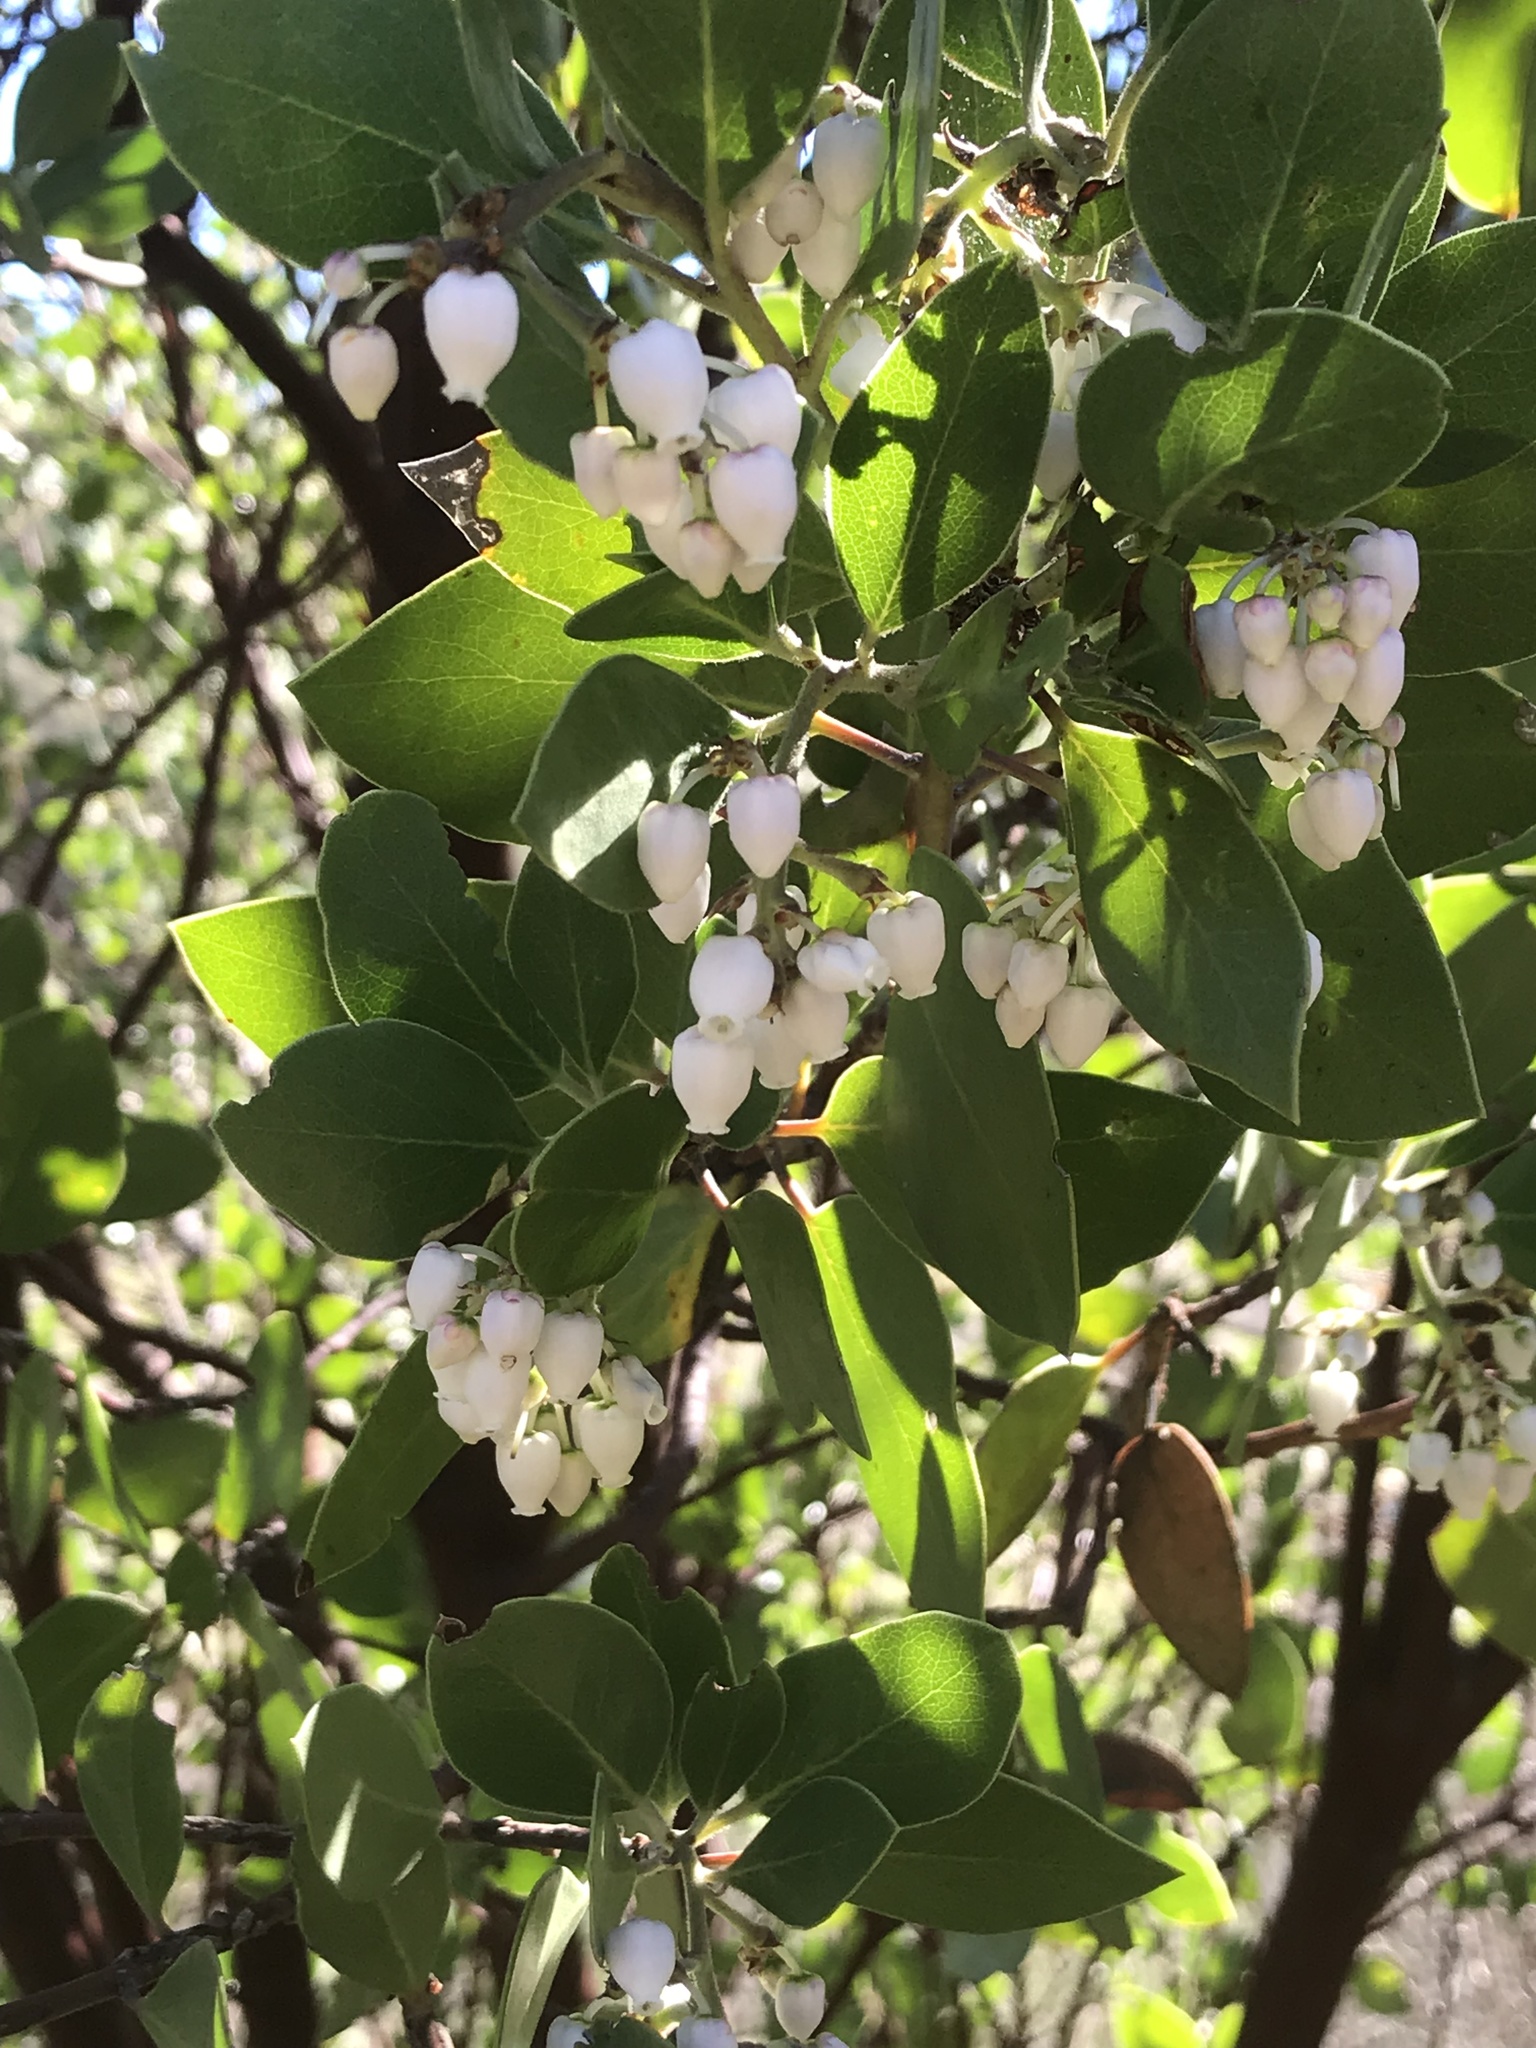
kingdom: Plantae
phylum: Tracheophyta
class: Magnoliopsida
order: Ericales
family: Ericaceae
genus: Arctostaphylos
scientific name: Arctostaphylos manzanita
